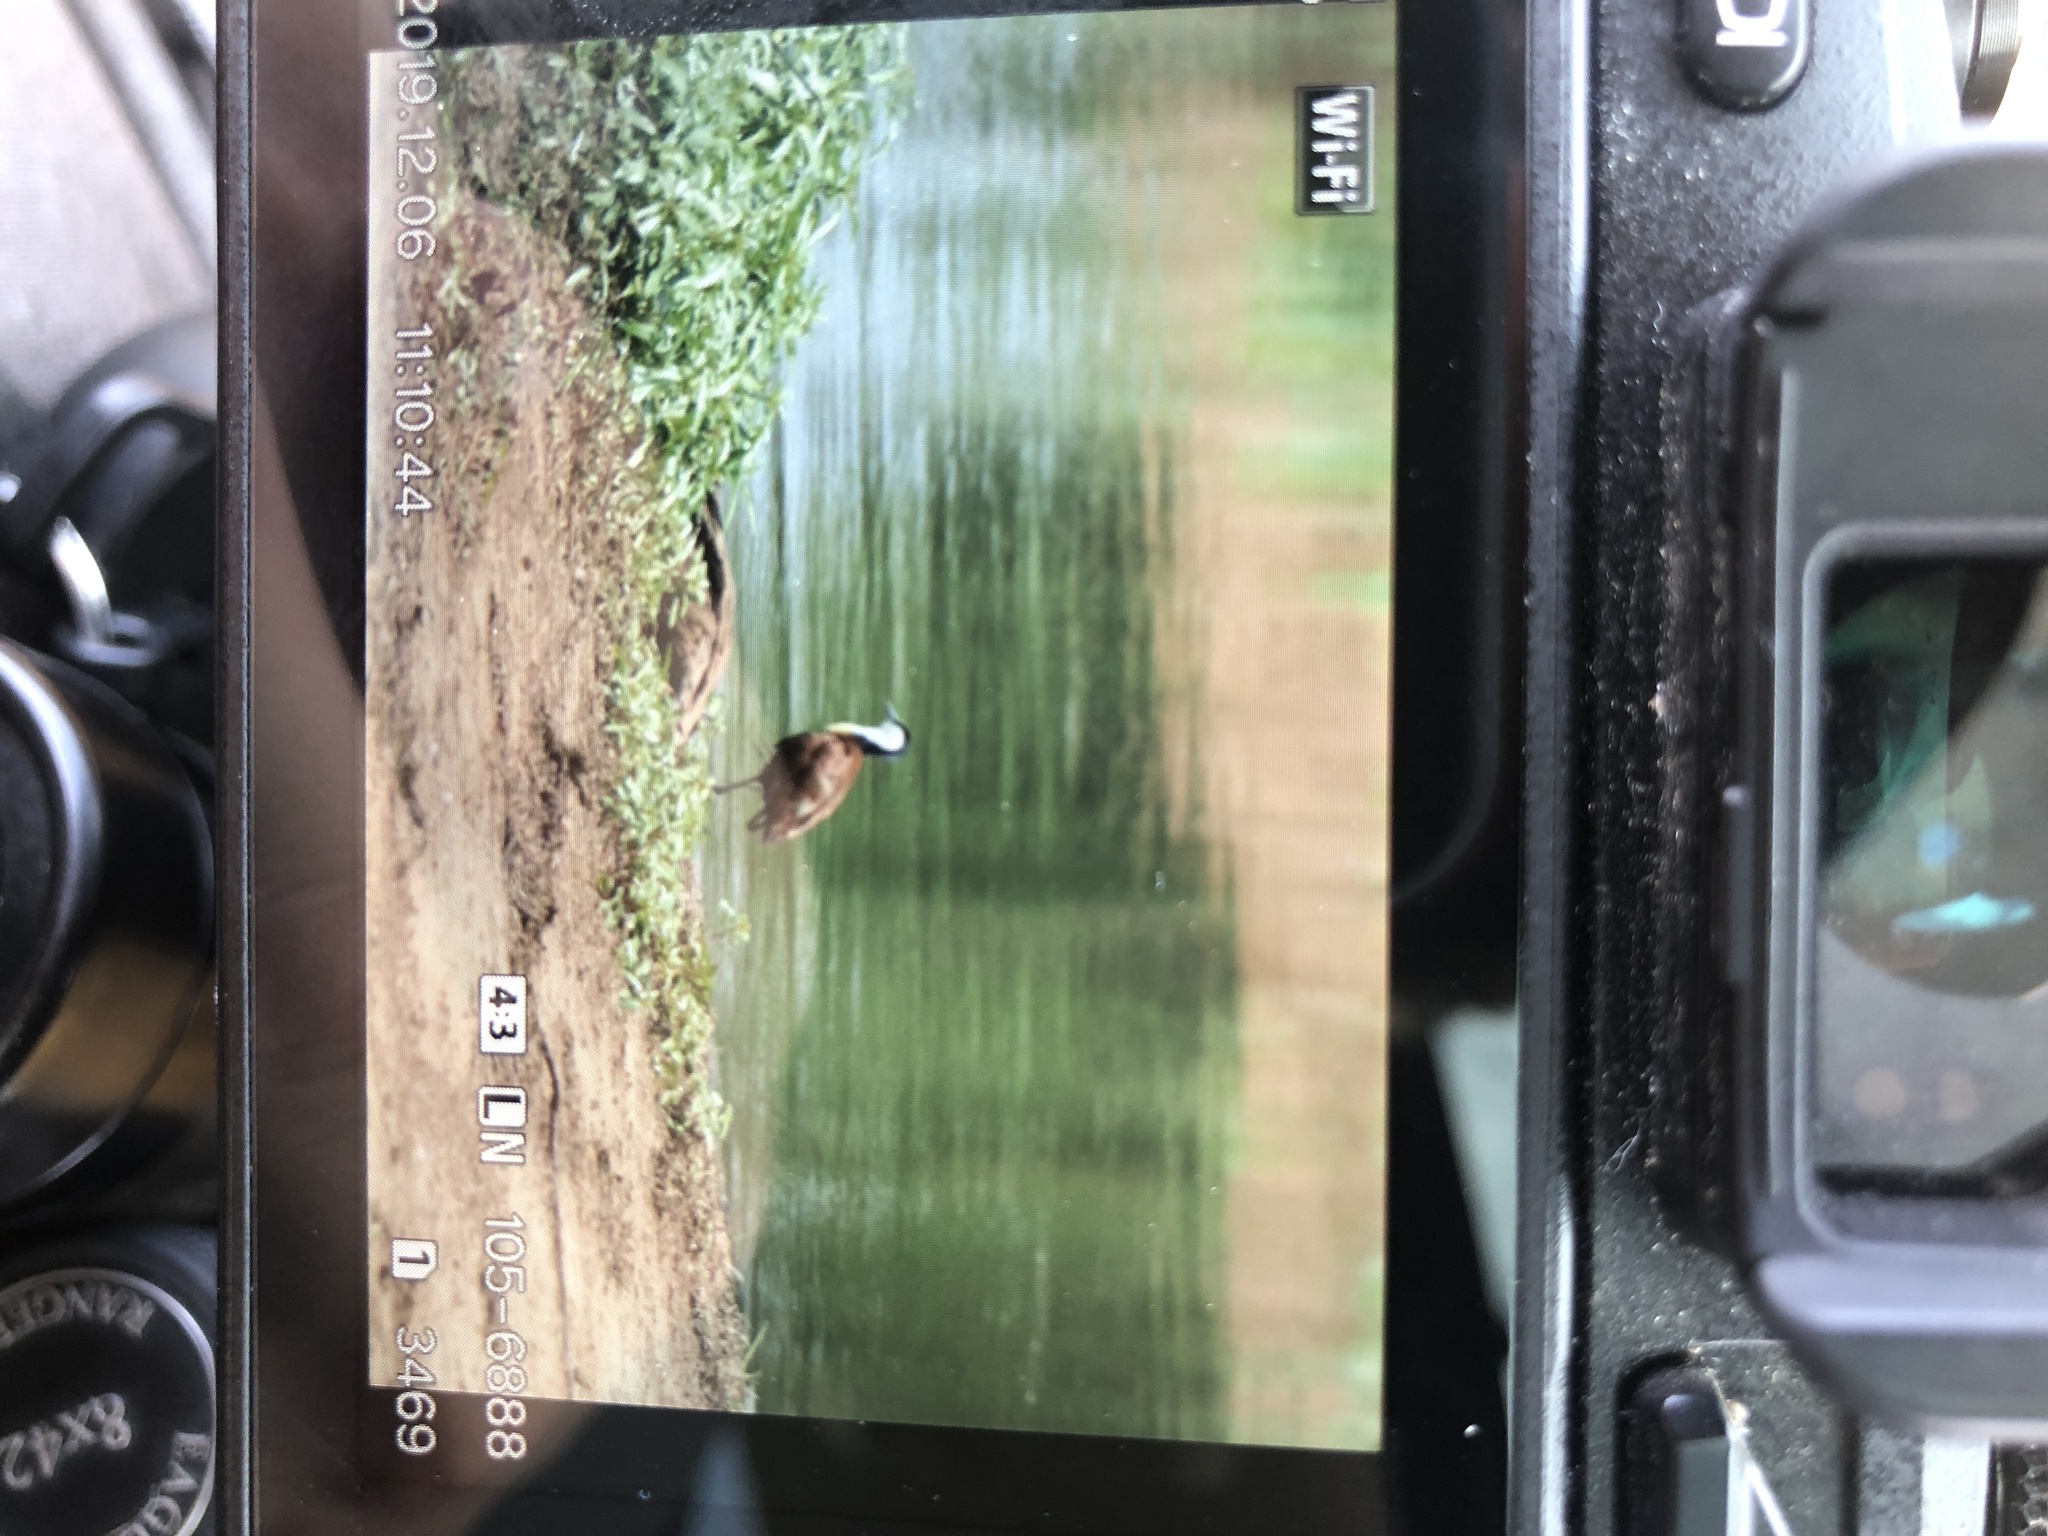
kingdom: Animalia
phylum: Chordata
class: Aves
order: Charadriiformes
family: Jacanidae
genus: Actophilornis
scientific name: Actophilornis africanus
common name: African jacana
